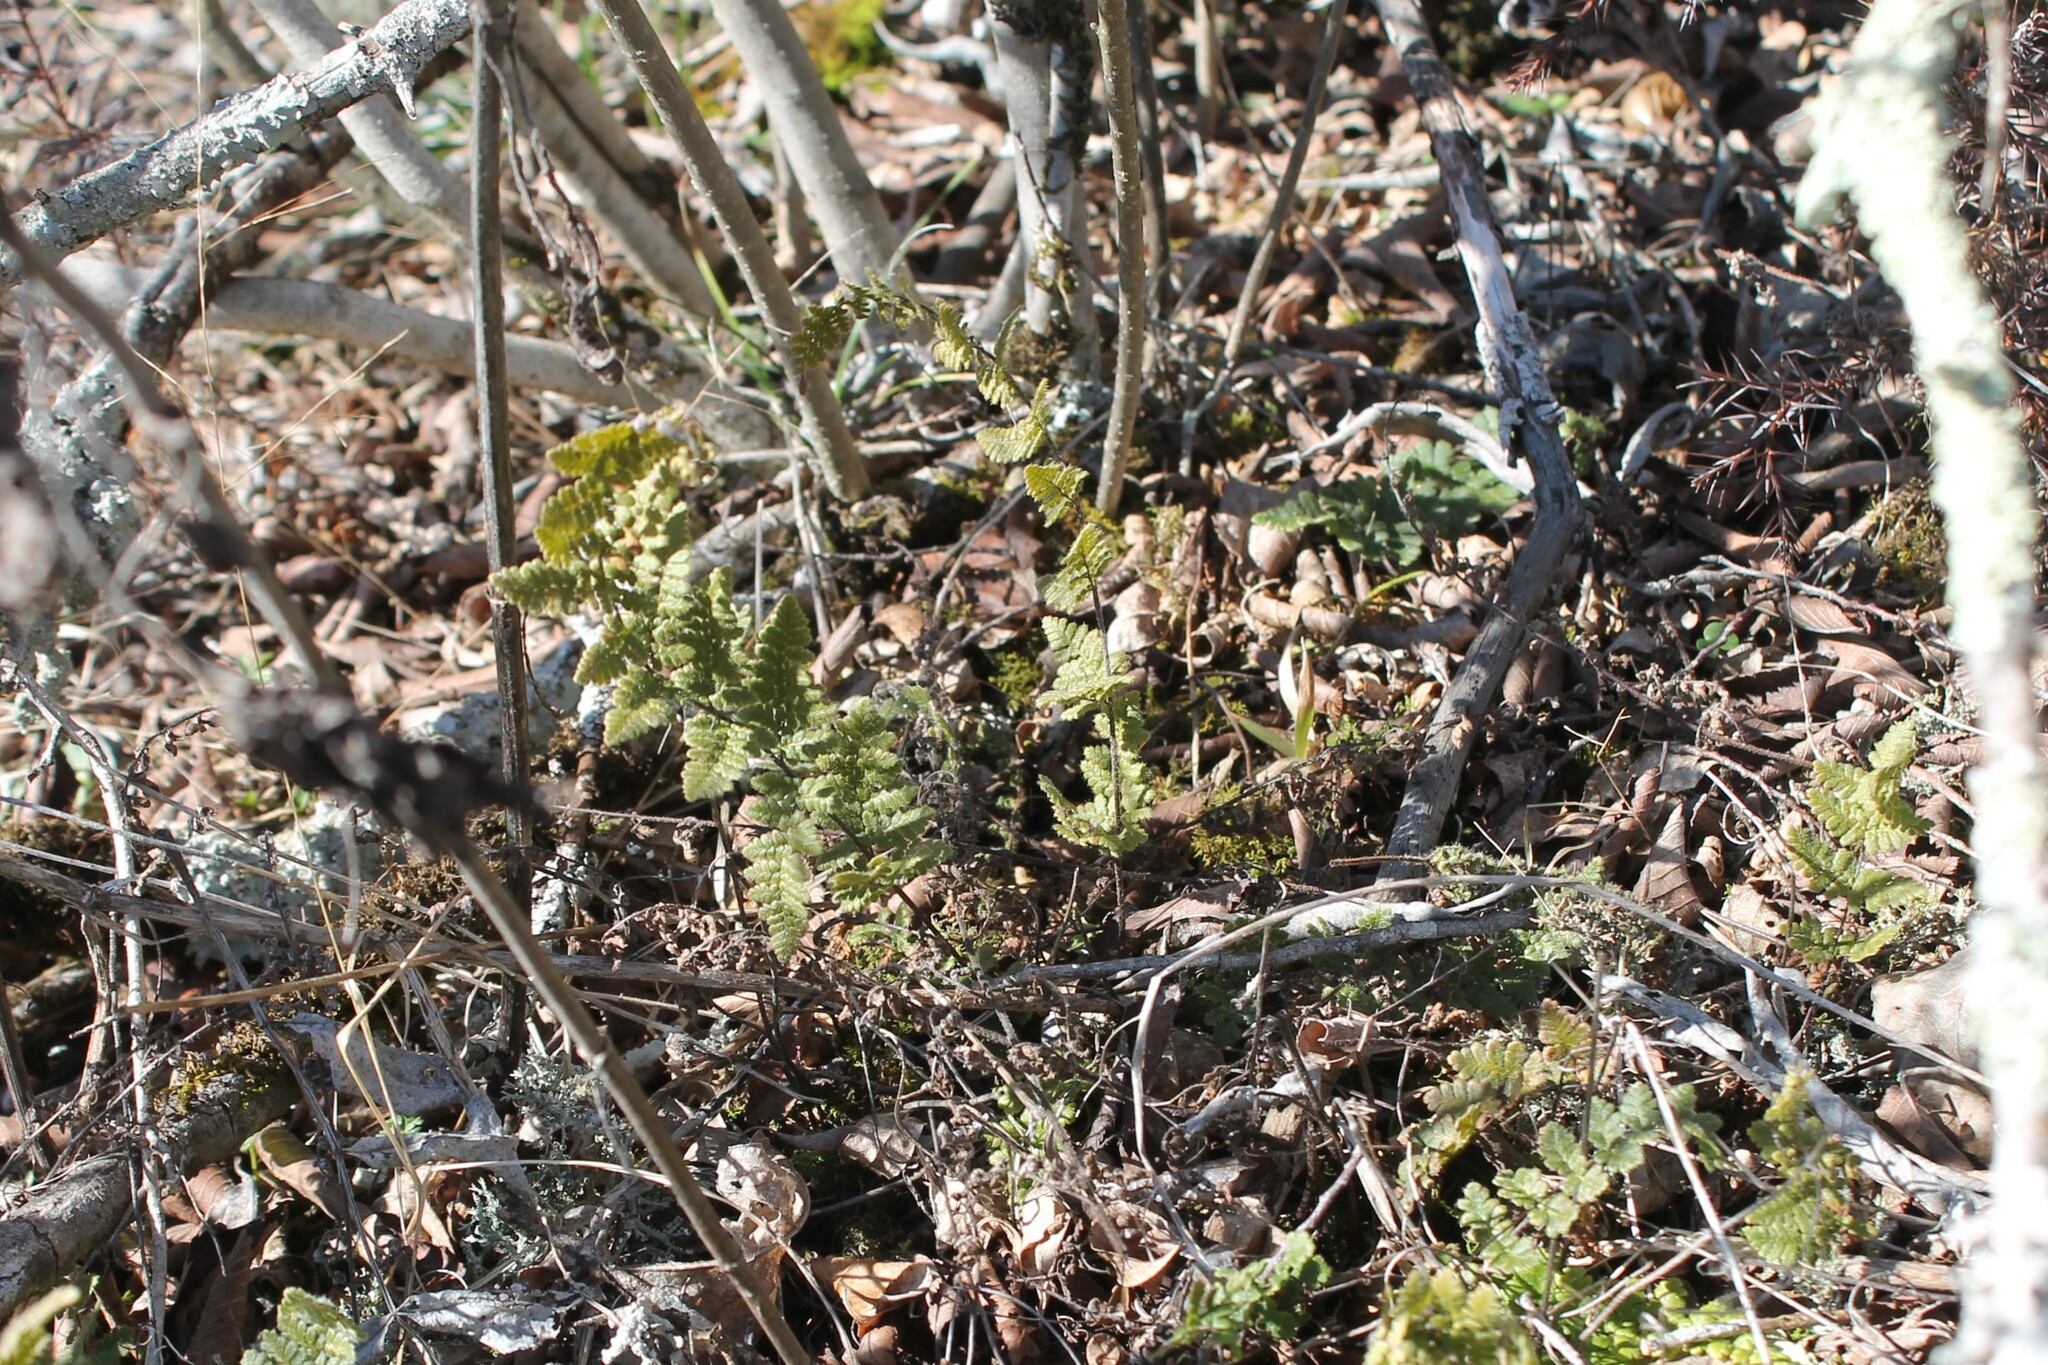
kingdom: Plantae
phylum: Tracheophyta
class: Polypodiopsida
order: Polypodiales
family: Pteridaceae
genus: Myriopteris
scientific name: Myriopteris lanosa
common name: Hairy lip fern
